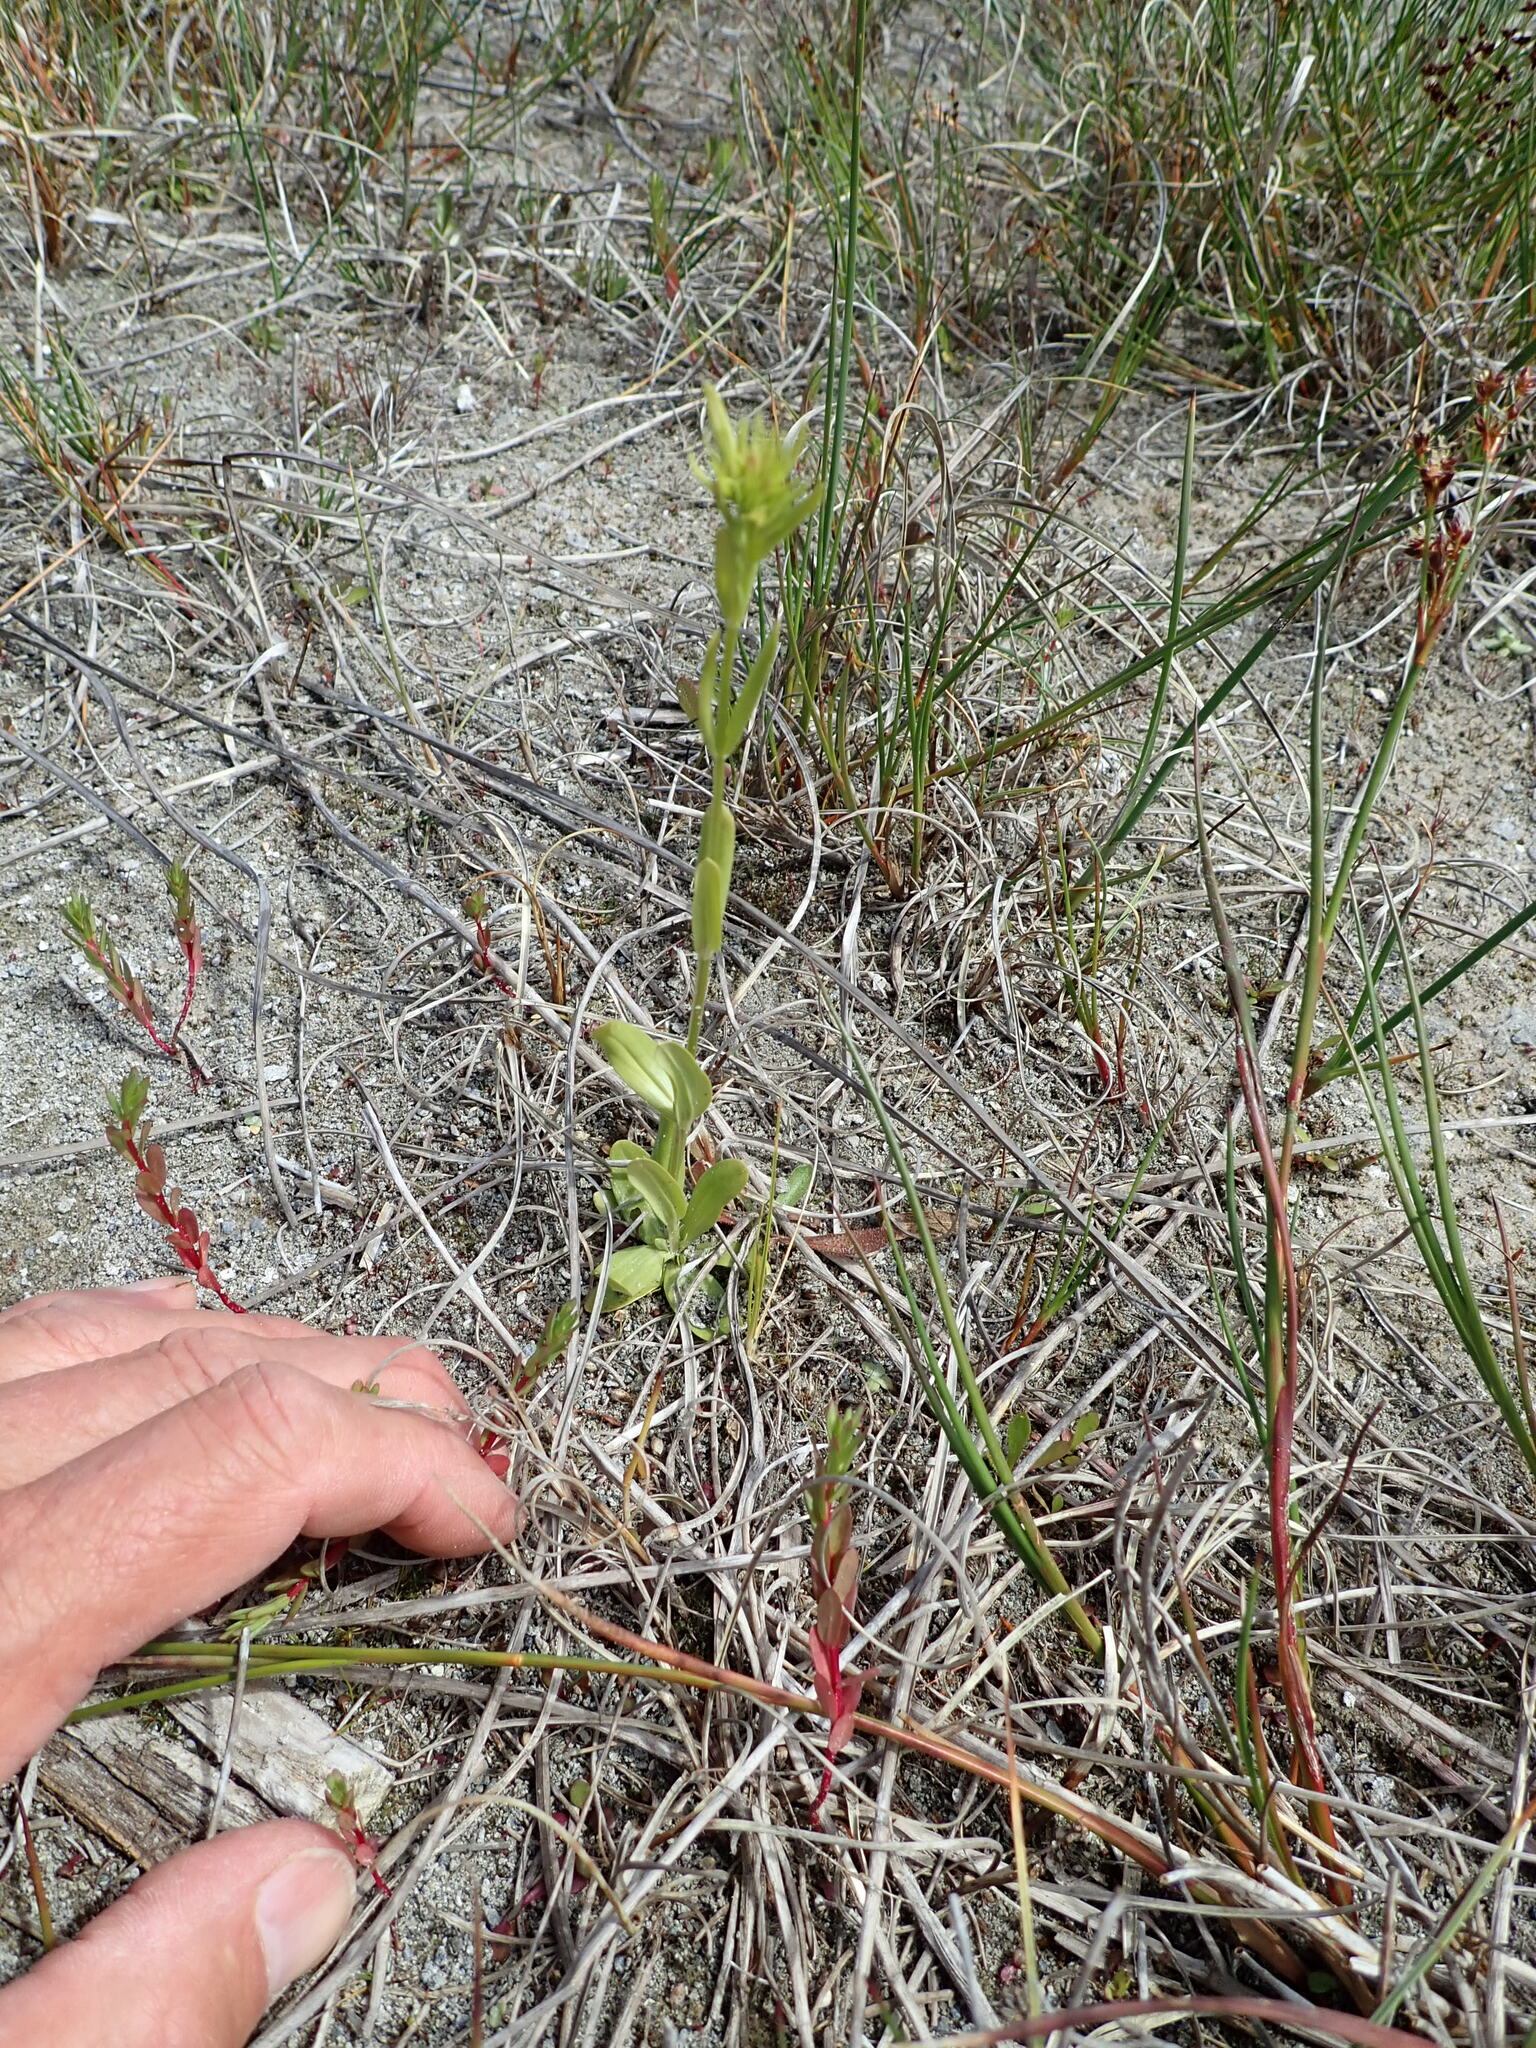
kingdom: Plantae
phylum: Tracheophyta
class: Magnoliopsida
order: Gentianales
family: Gentianaceae
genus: Centaurium
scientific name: Centaurium erythraea
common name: Common centaury
